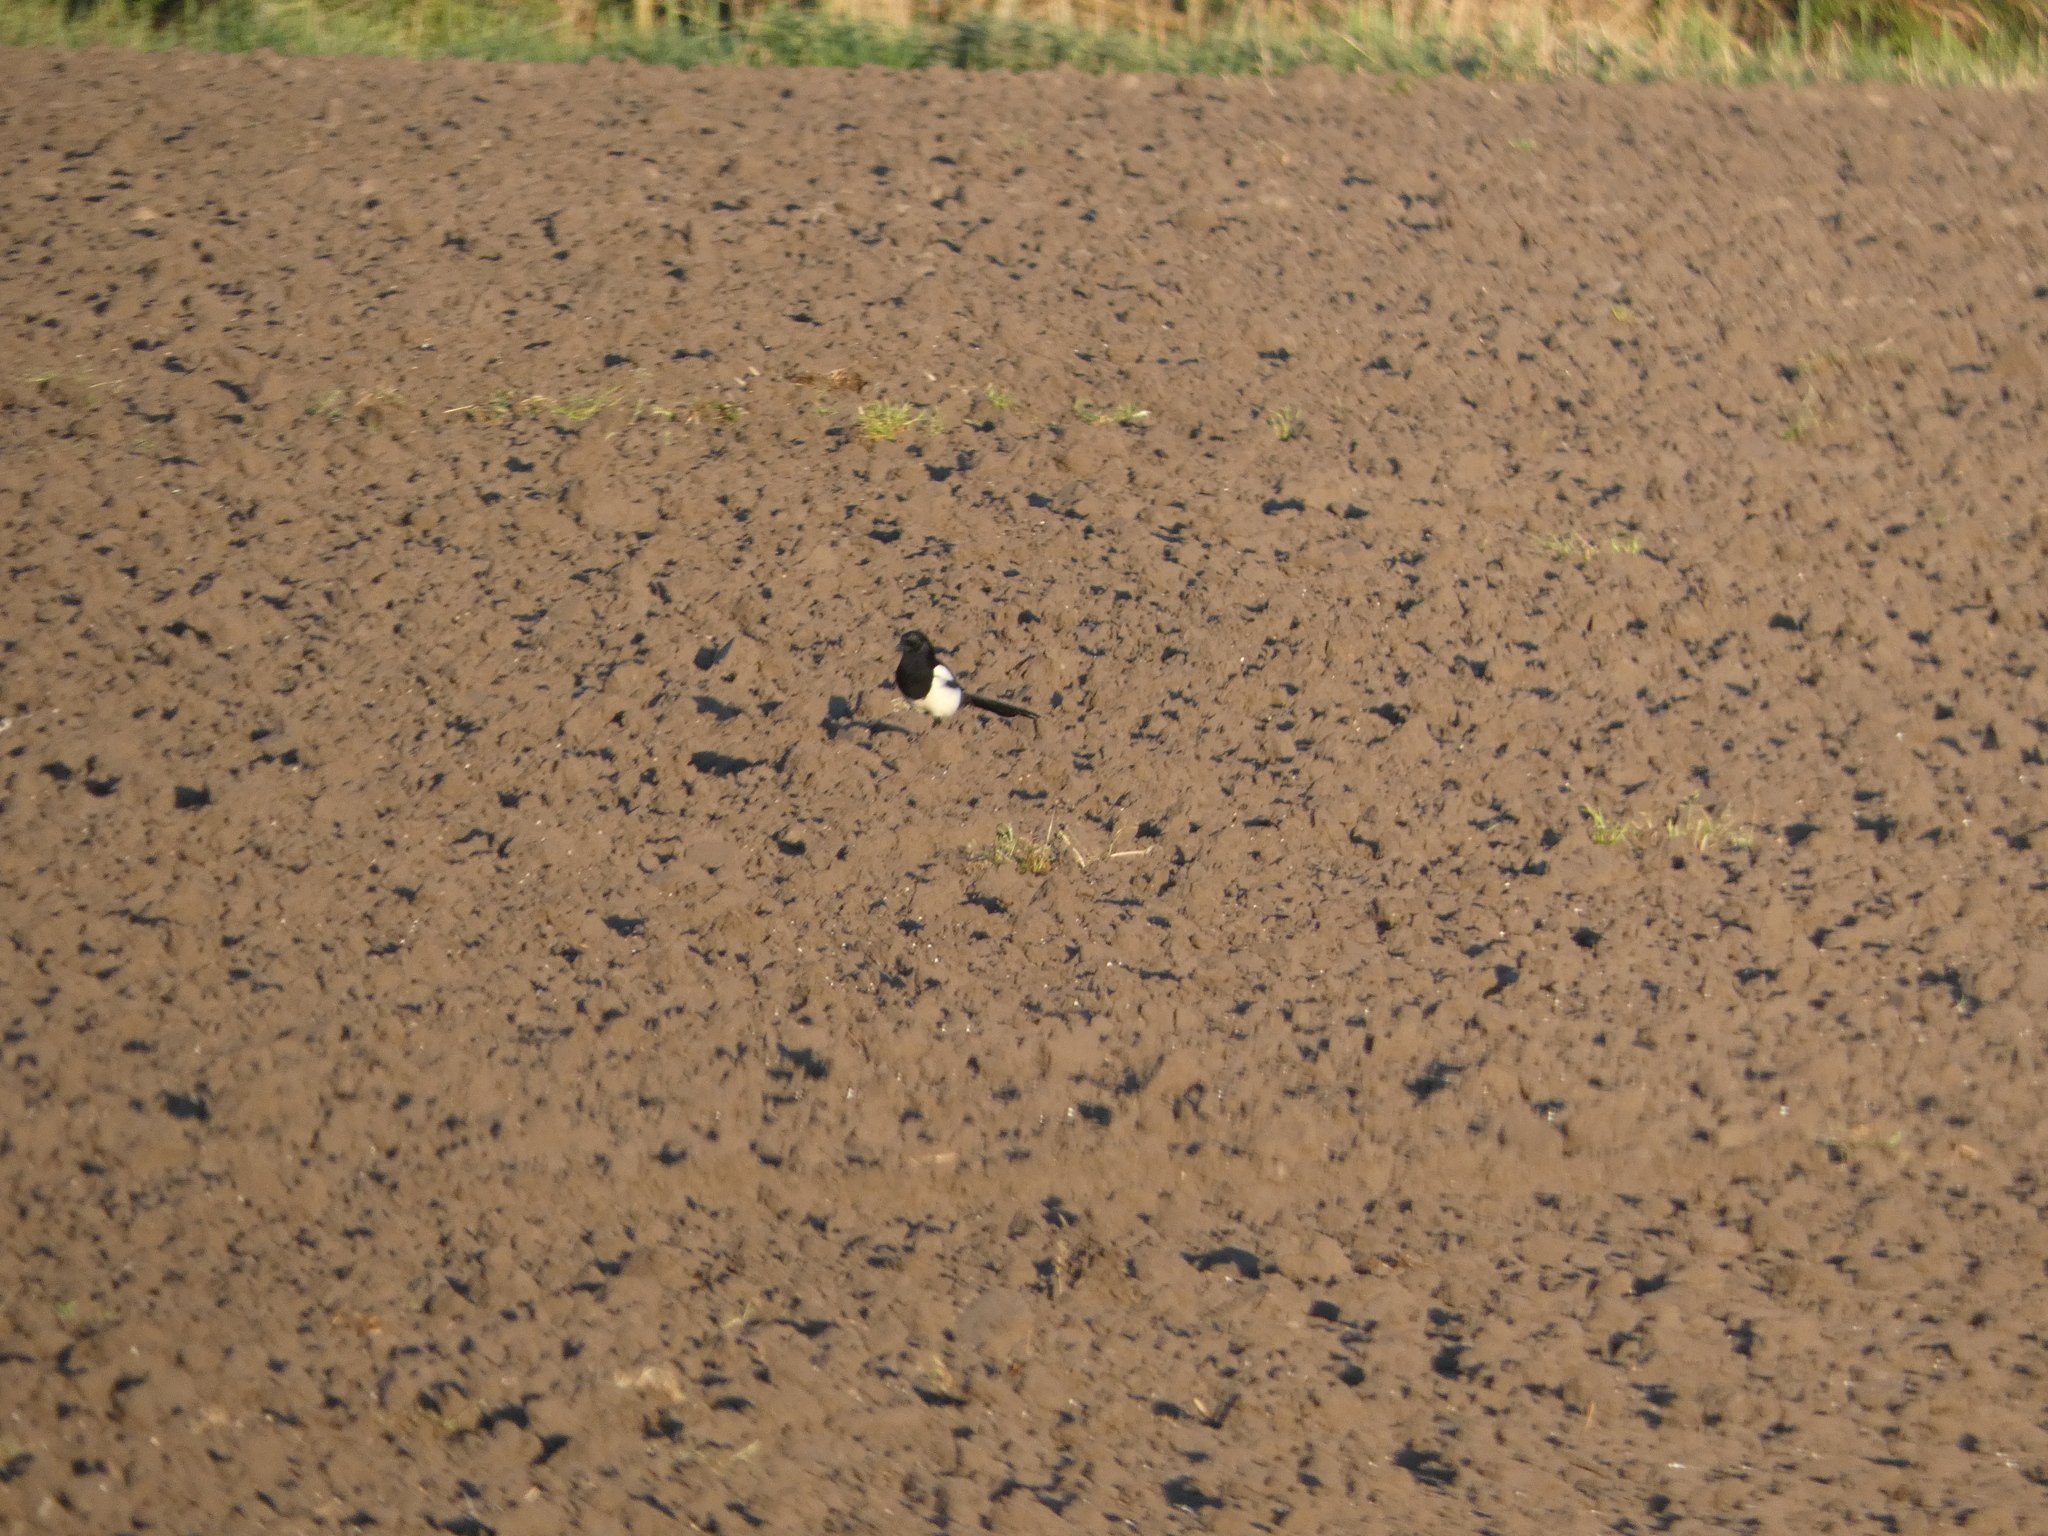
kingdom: Animalia
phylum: Chordata
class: Aves
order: Passeriformes
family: Corvidae
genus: Pica
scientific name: Pica pica
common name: Eurasian magpie
